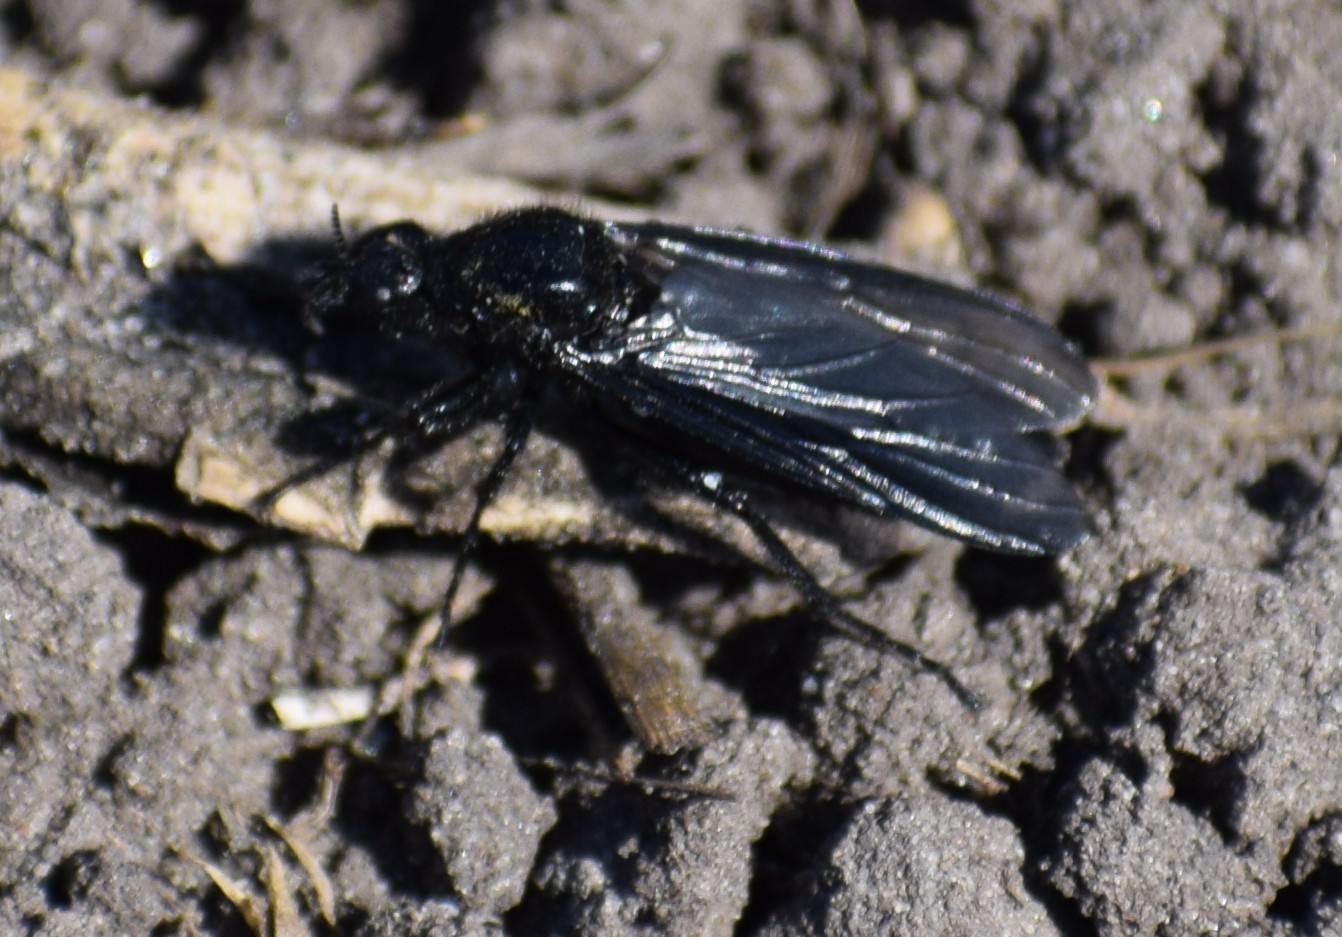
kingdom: Animalia
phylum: Arthropoda
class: Insecta
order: Diptera
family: Bibionidae
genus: Bibio
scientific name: Bibio marci
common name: St marks fly
